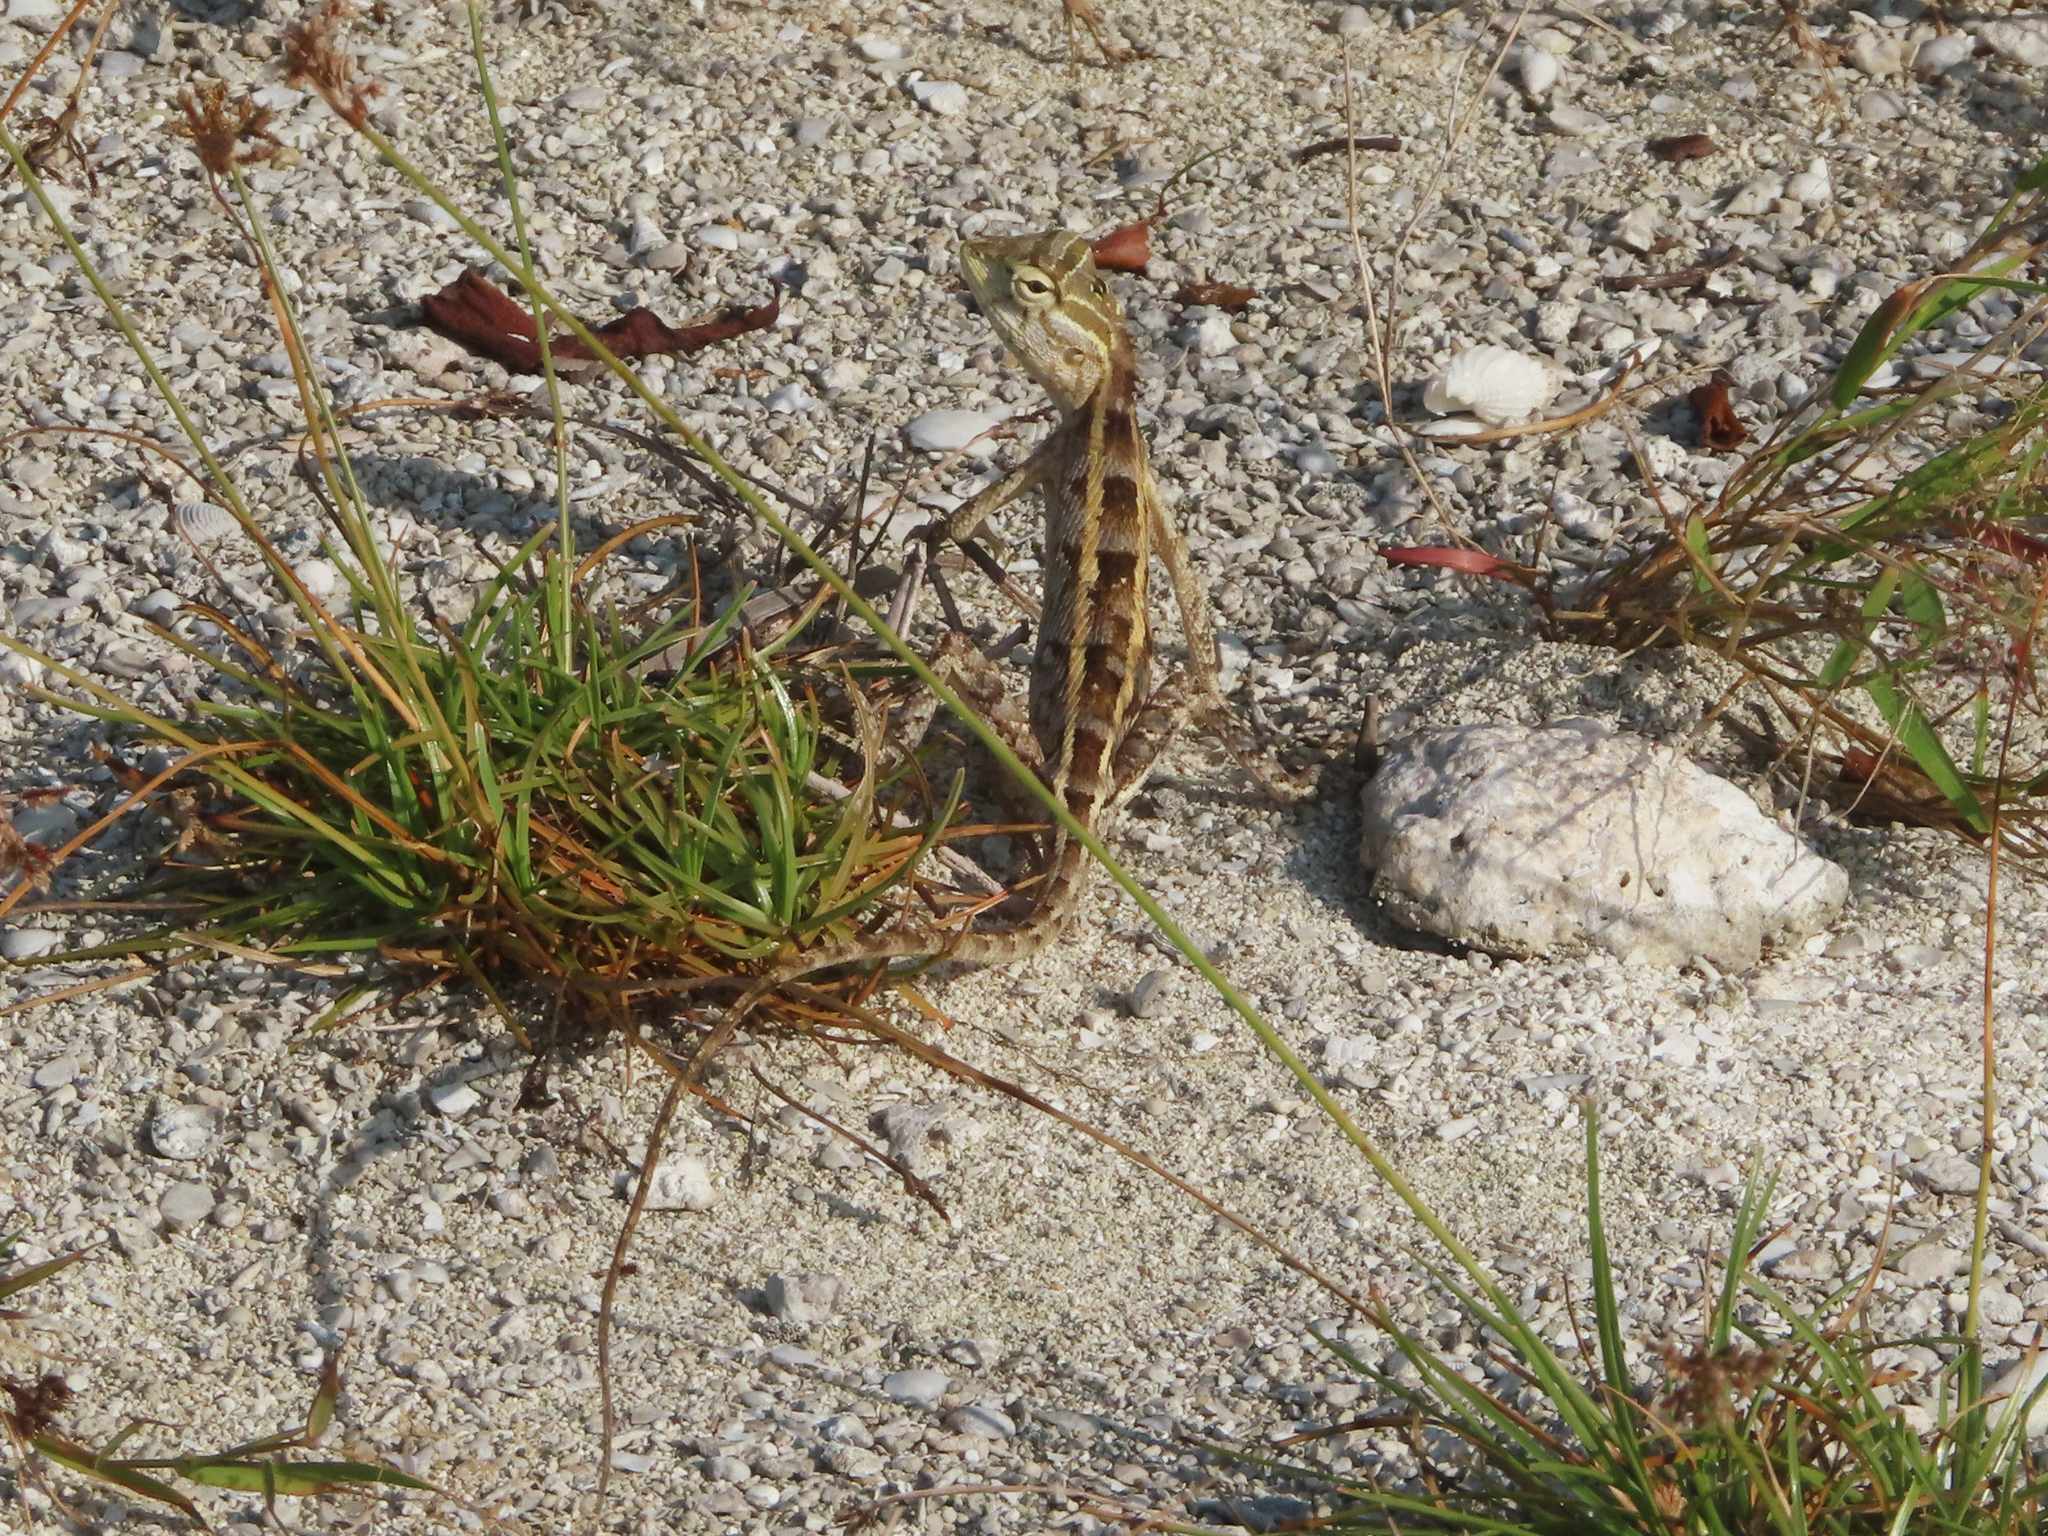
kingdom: Animalia
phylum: Chordata
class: Squamata
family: Agamidae
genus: Calotes
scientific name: Calotes versicolor
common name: Oriental garden lizard
